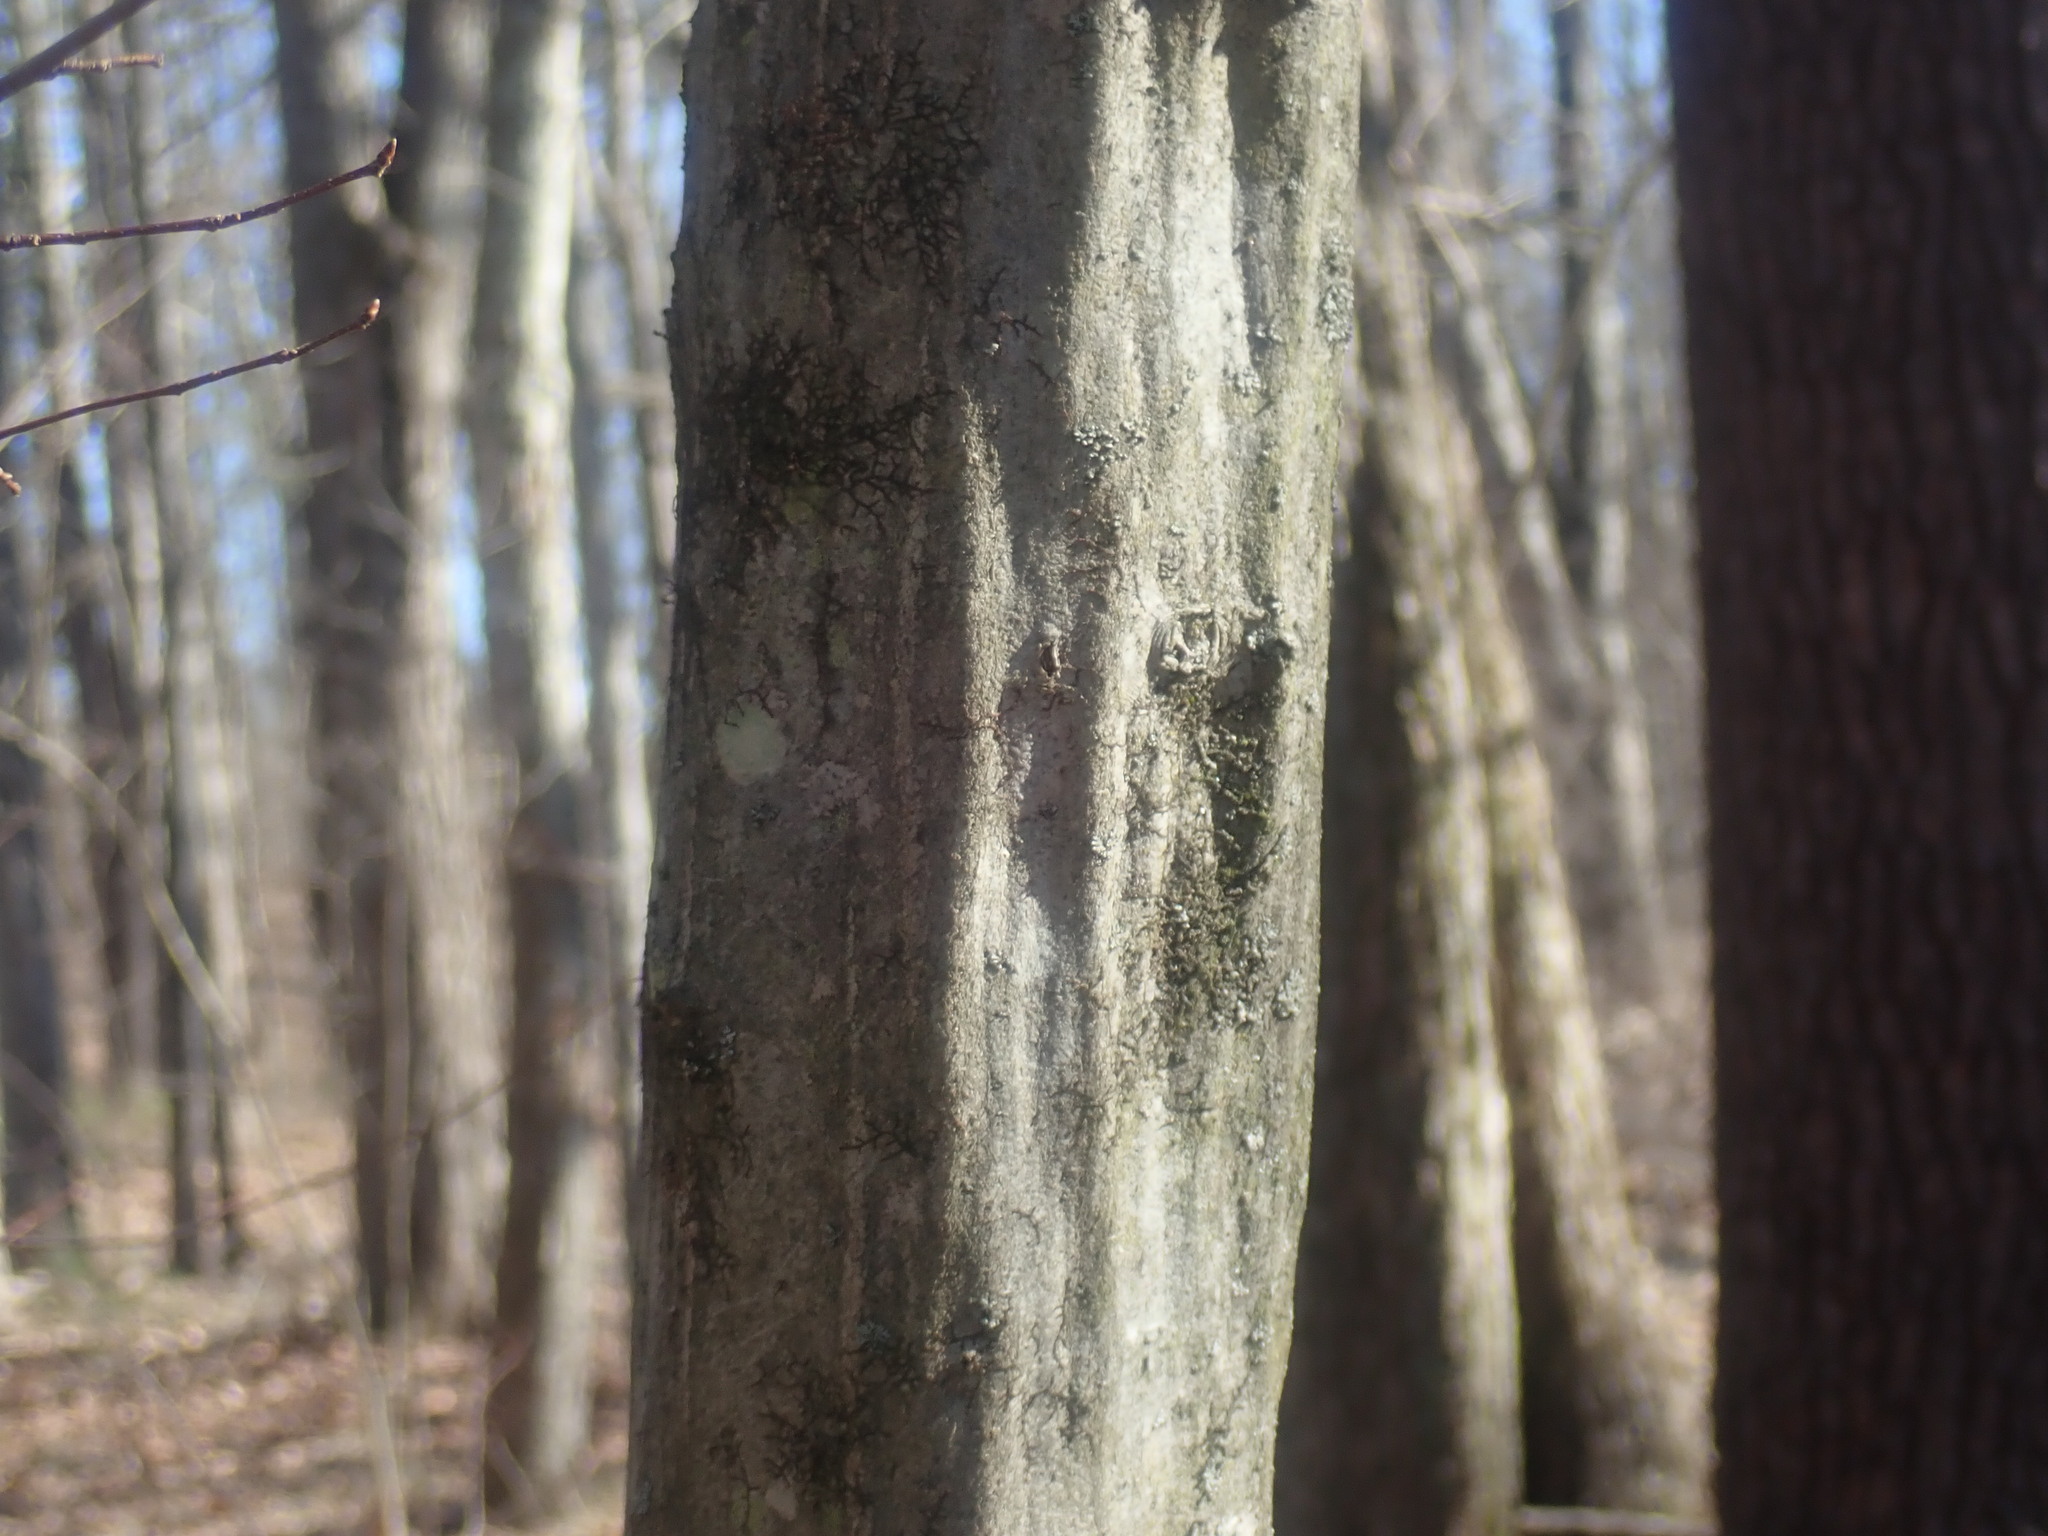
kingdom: Plantae
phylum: Tracheophyta
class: Magnoliopsida
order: Fagales
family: Betulaceae
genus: Carpinus
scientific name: Carpinus caroliniana
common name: American hornbeam
